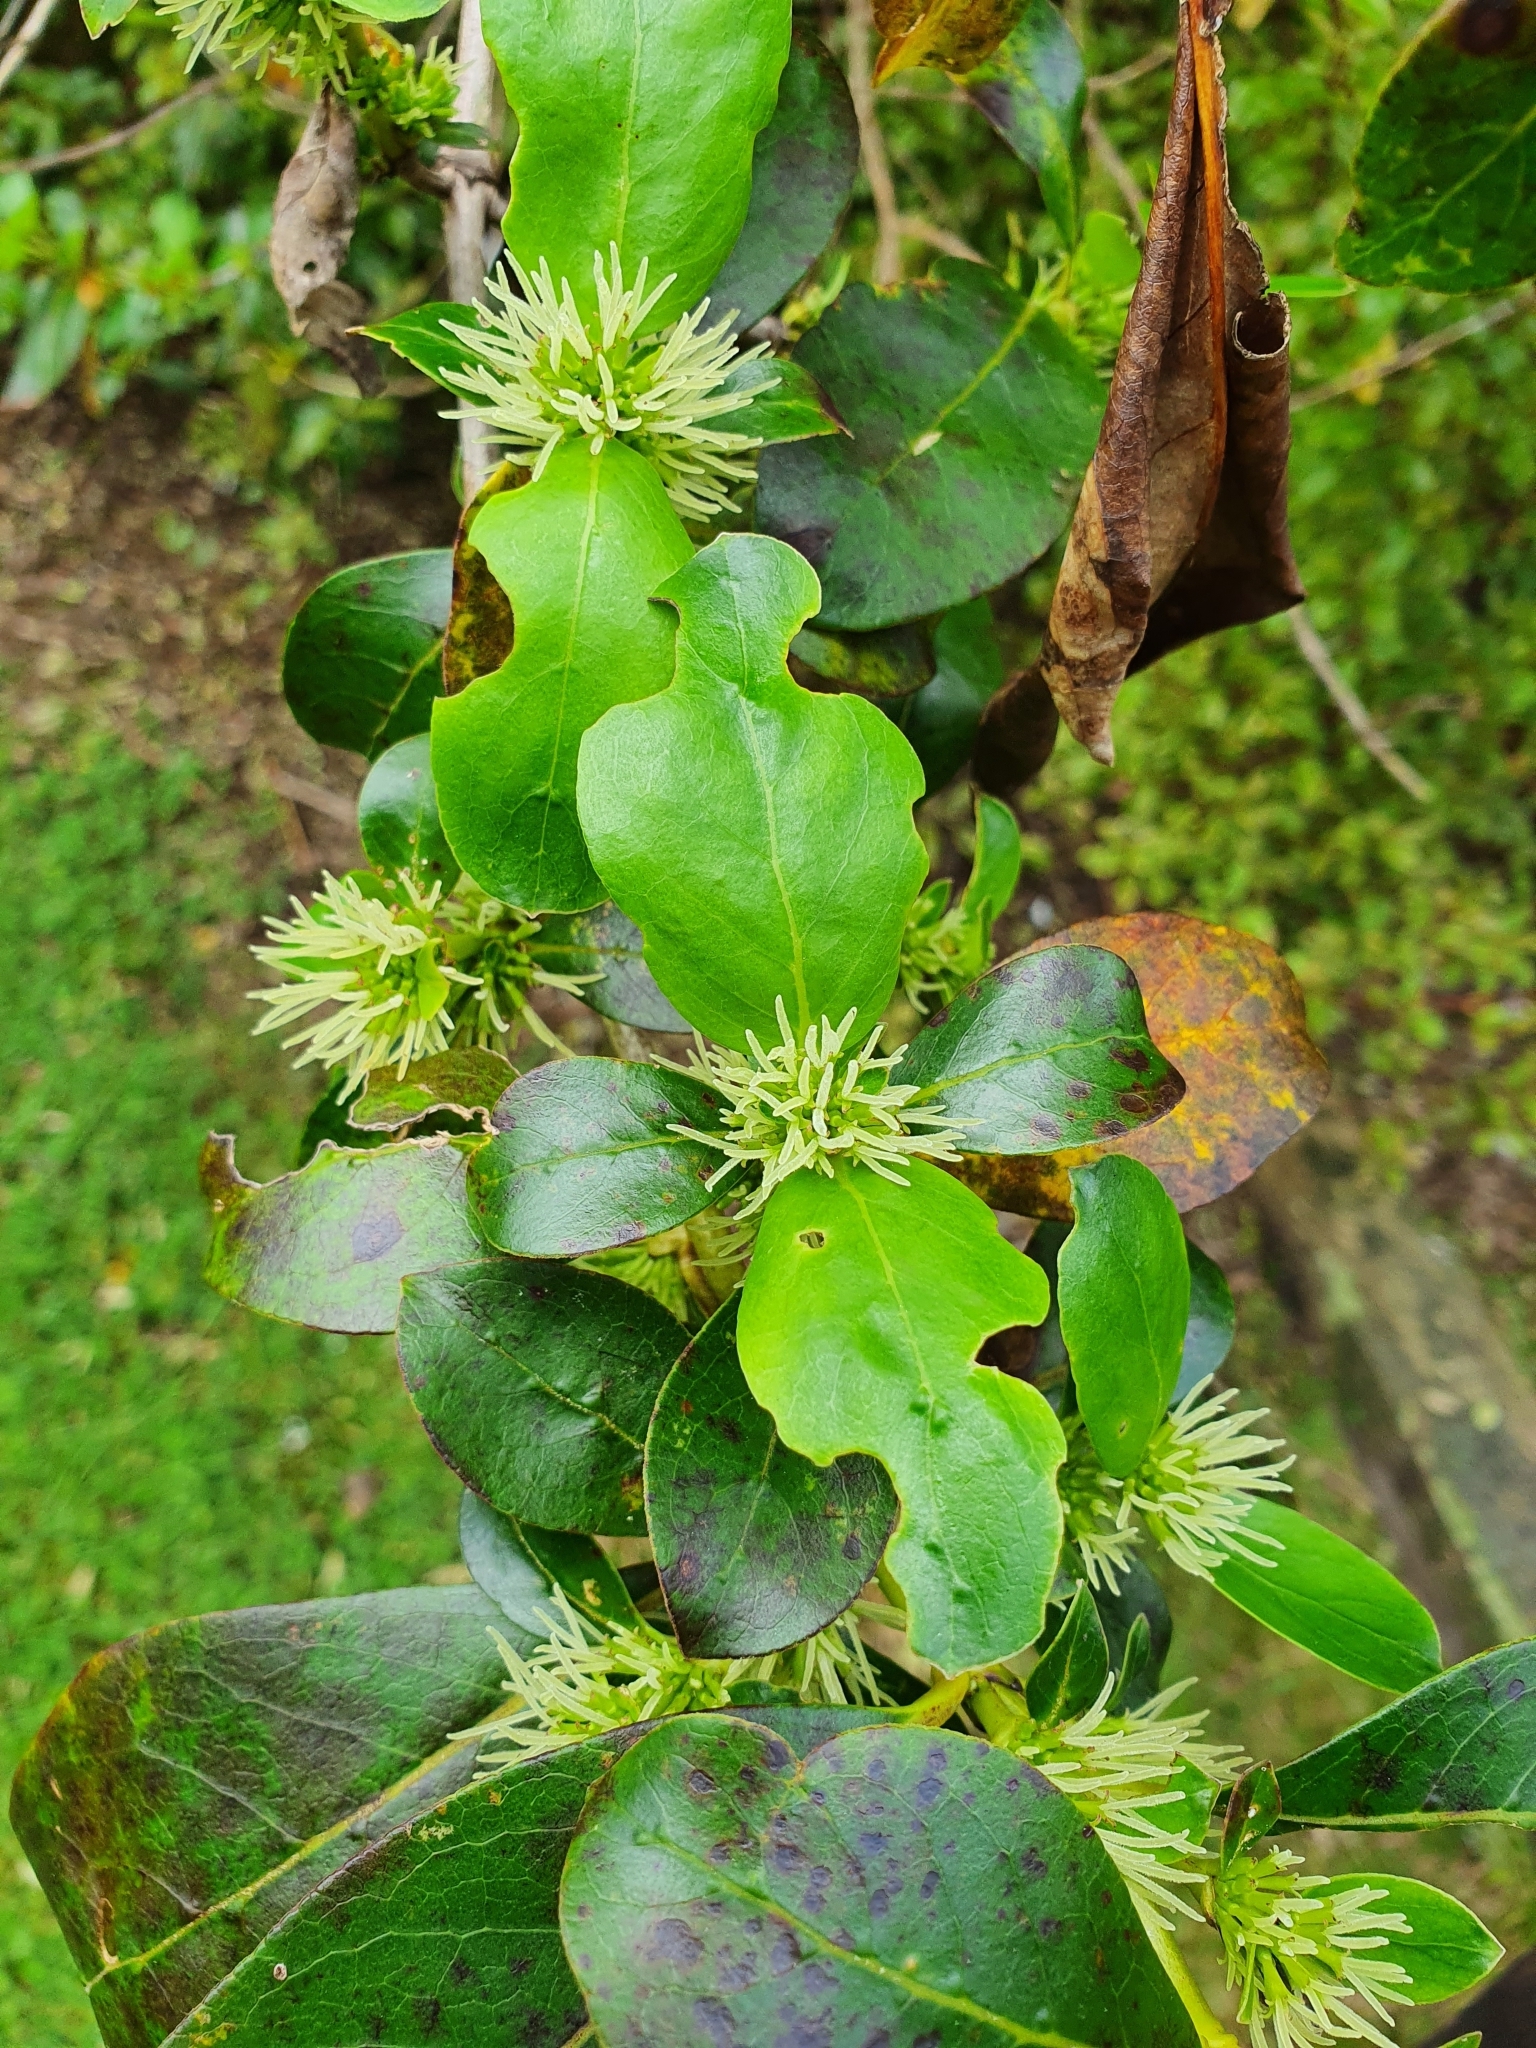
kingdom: Plantae
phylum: Tracheophyta
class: Magnoliopsida
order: Gentianales
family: Rubiaceae
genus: Coprosma
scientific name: Coprosma robusta
